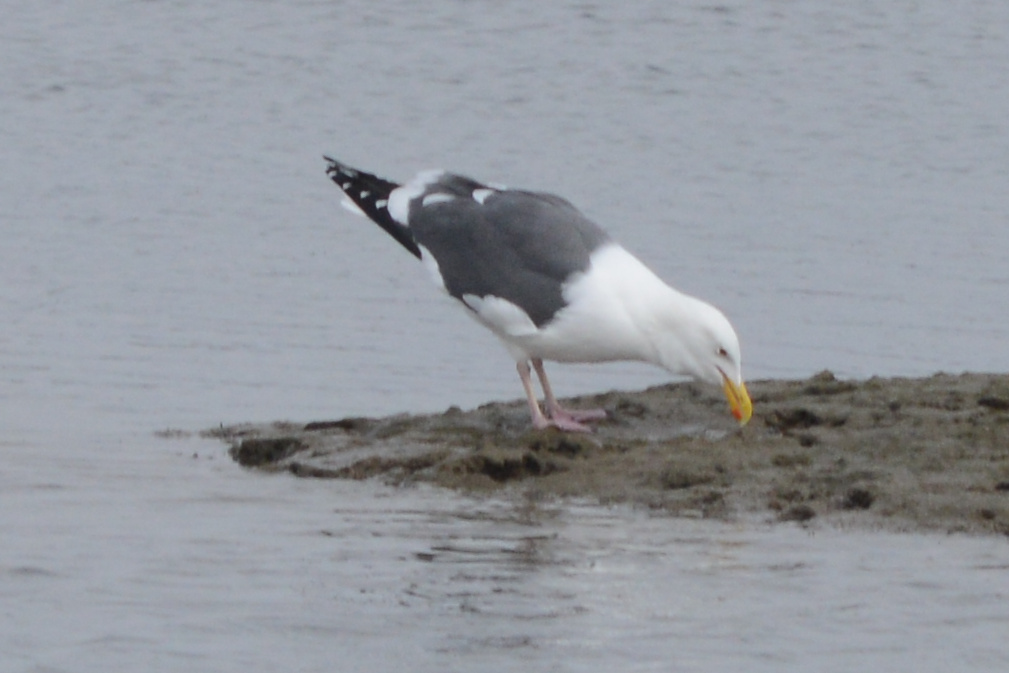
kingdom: Animalia
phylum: Chordata
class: Aves
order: Charadriiformes
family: Laridae
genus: Larus
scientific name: Larus occidentalis
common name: Western gull
